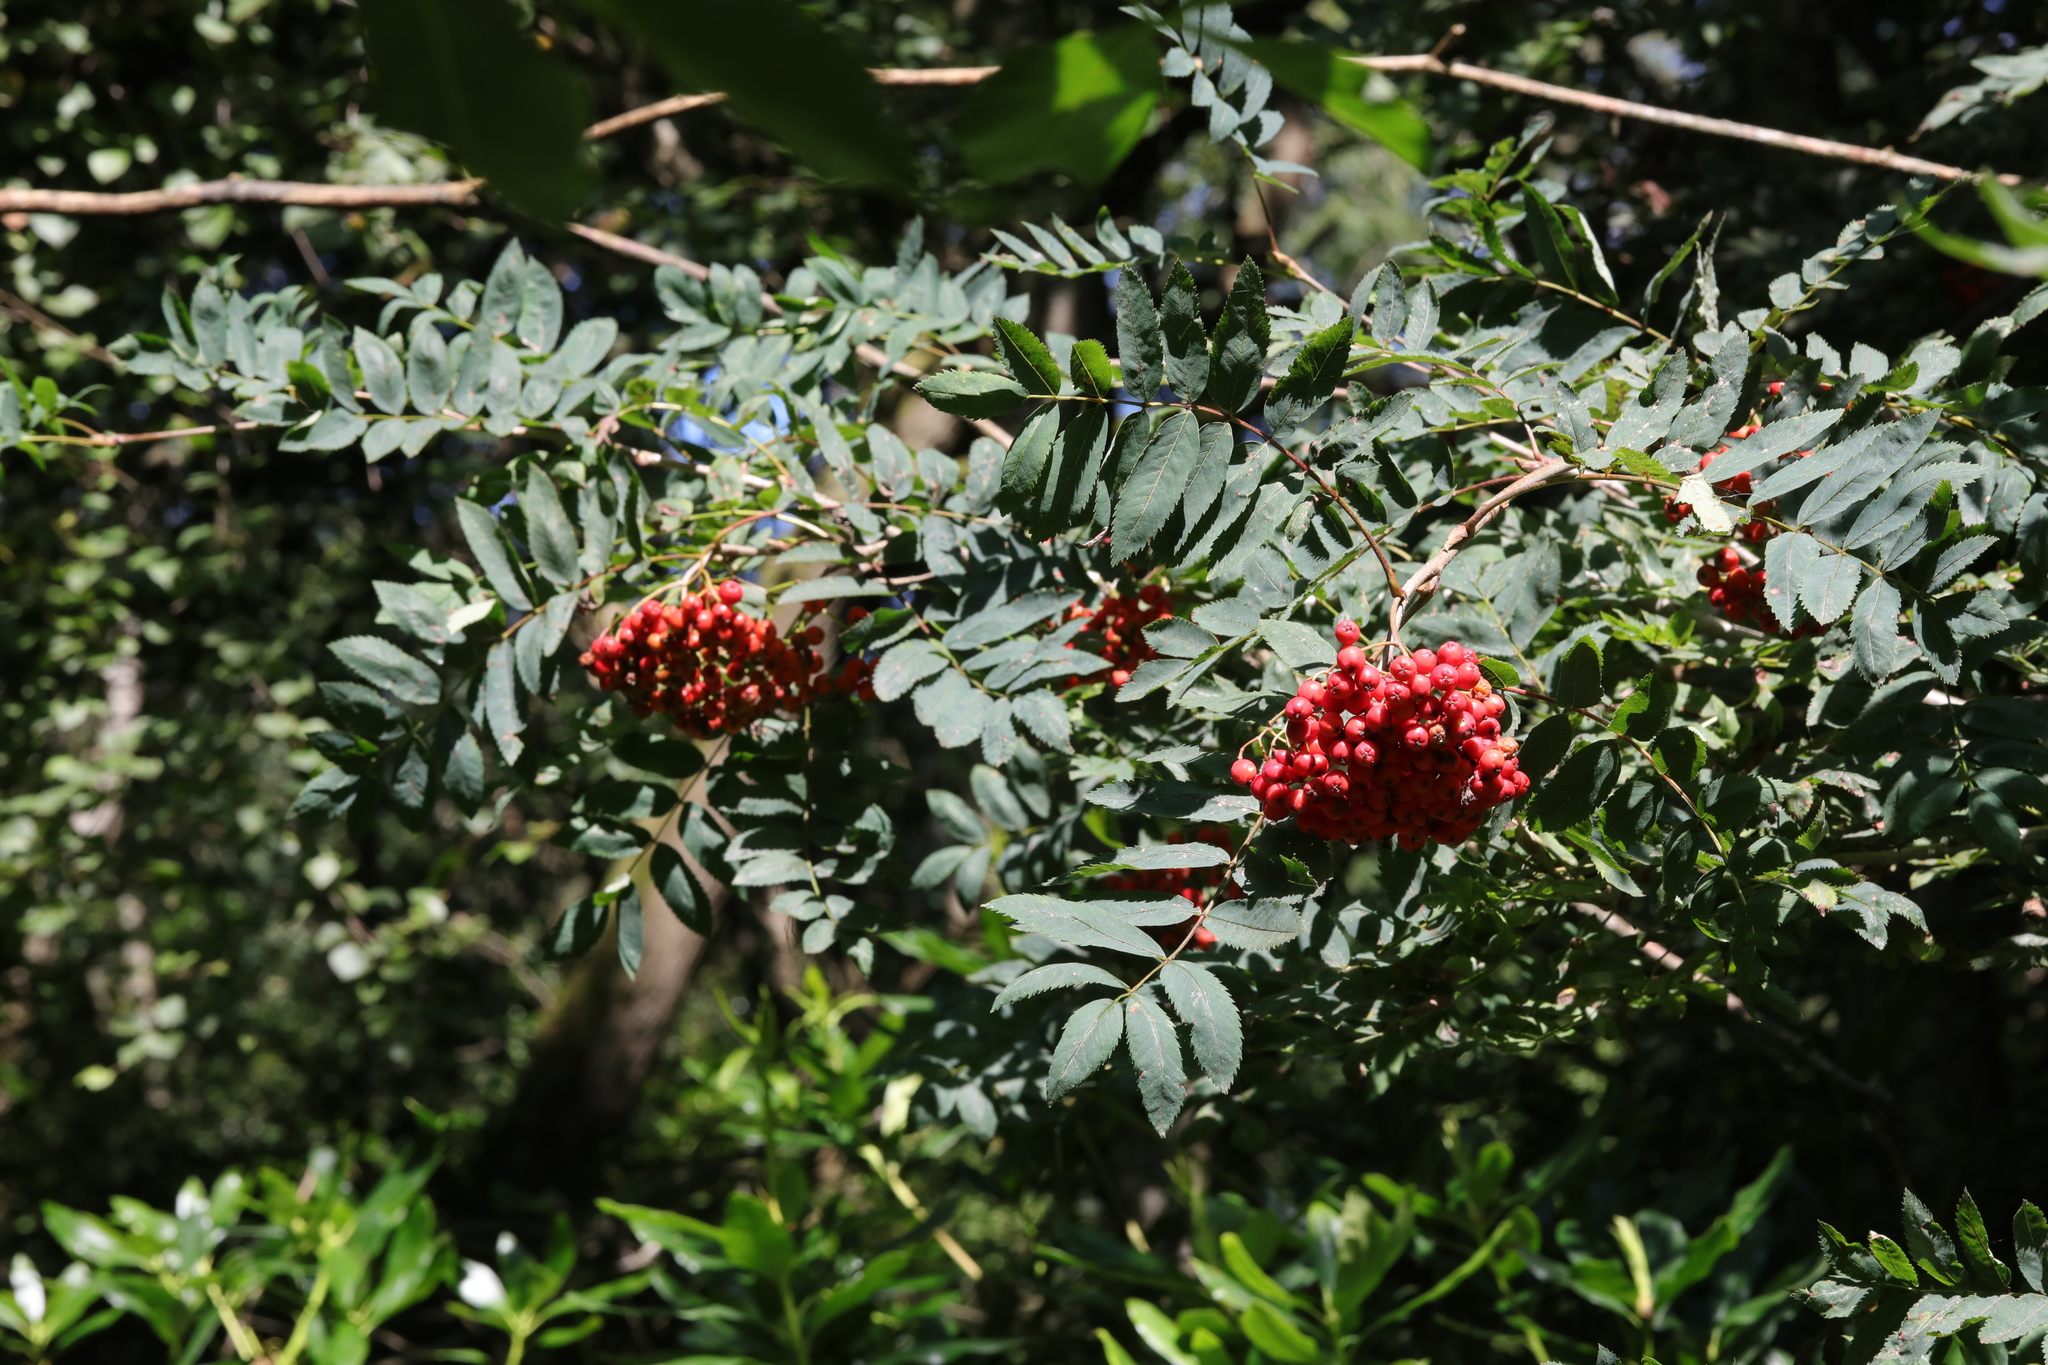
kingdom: Plantae
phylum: Tracheophyta
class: Magnoliopsida
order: Rosales
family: Rosaceae
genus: Sorbus
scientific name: Sorbus aucuparia
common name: Rowan
